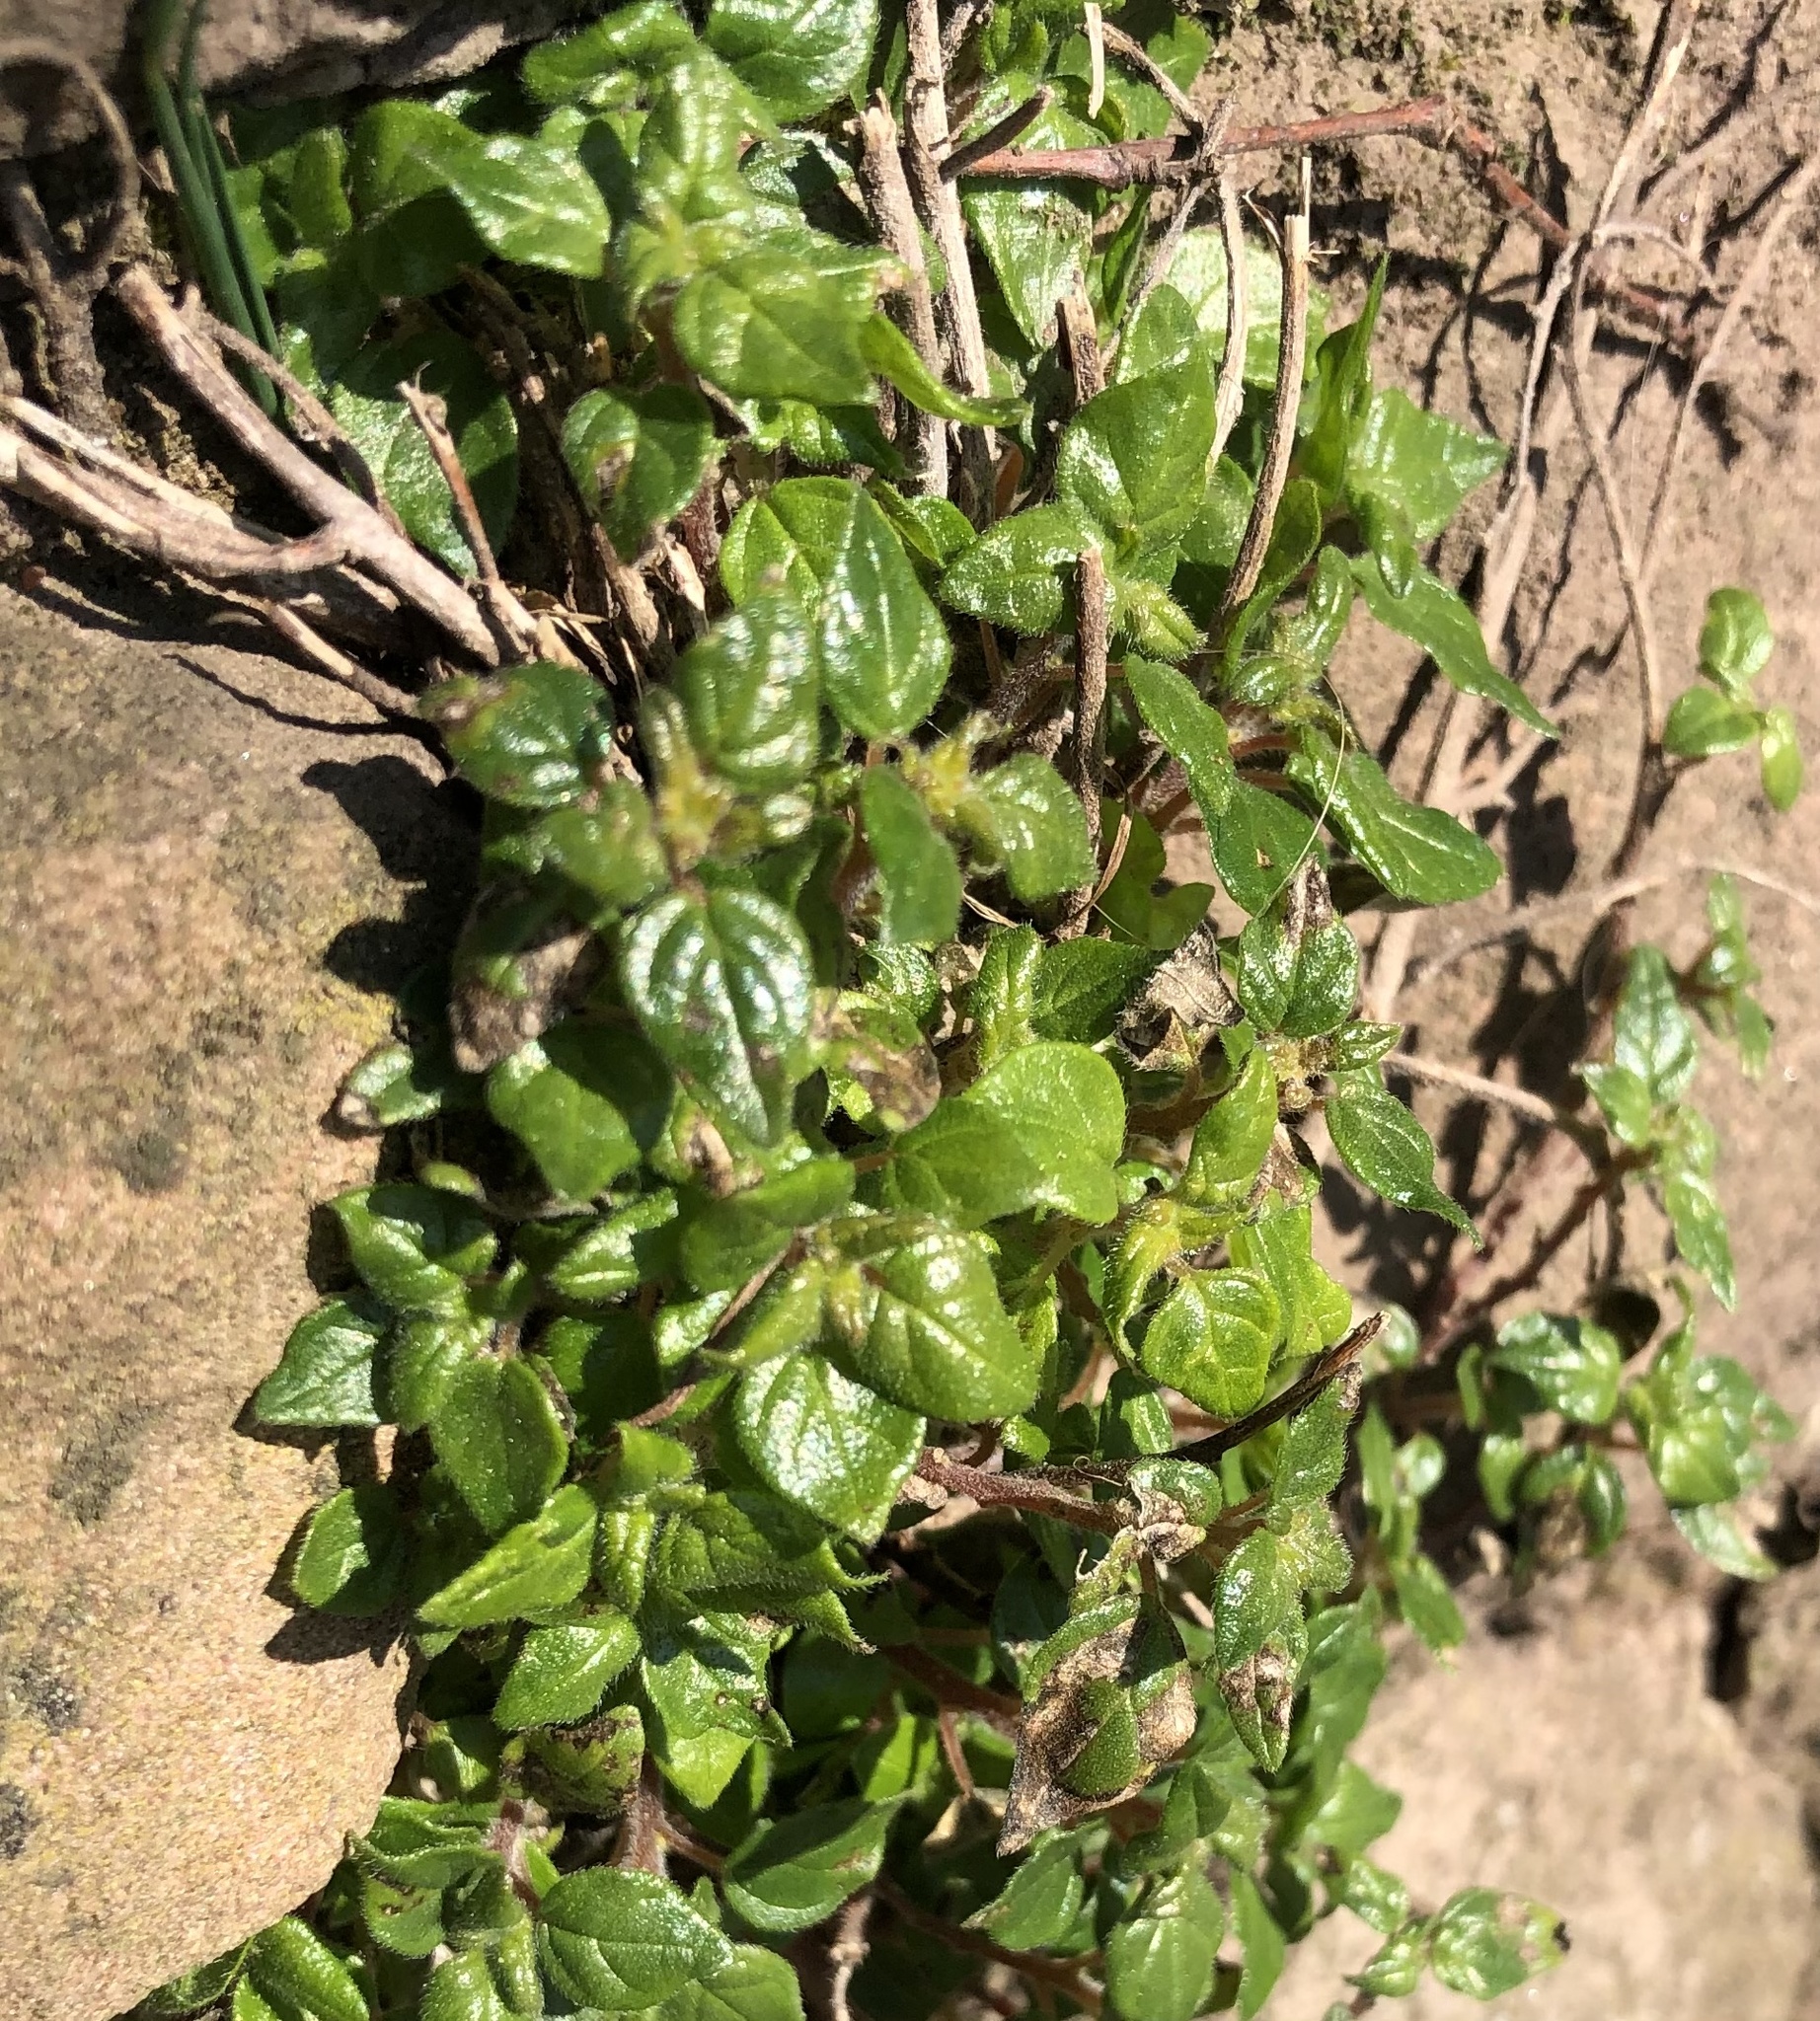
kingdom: Plantae
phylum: Tracheophyta
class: Magnoliopsida
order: Rosales
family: Urticaceae
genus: Parietaria
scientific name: Parietaria judaica
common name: Pellitory-of-the-wall
